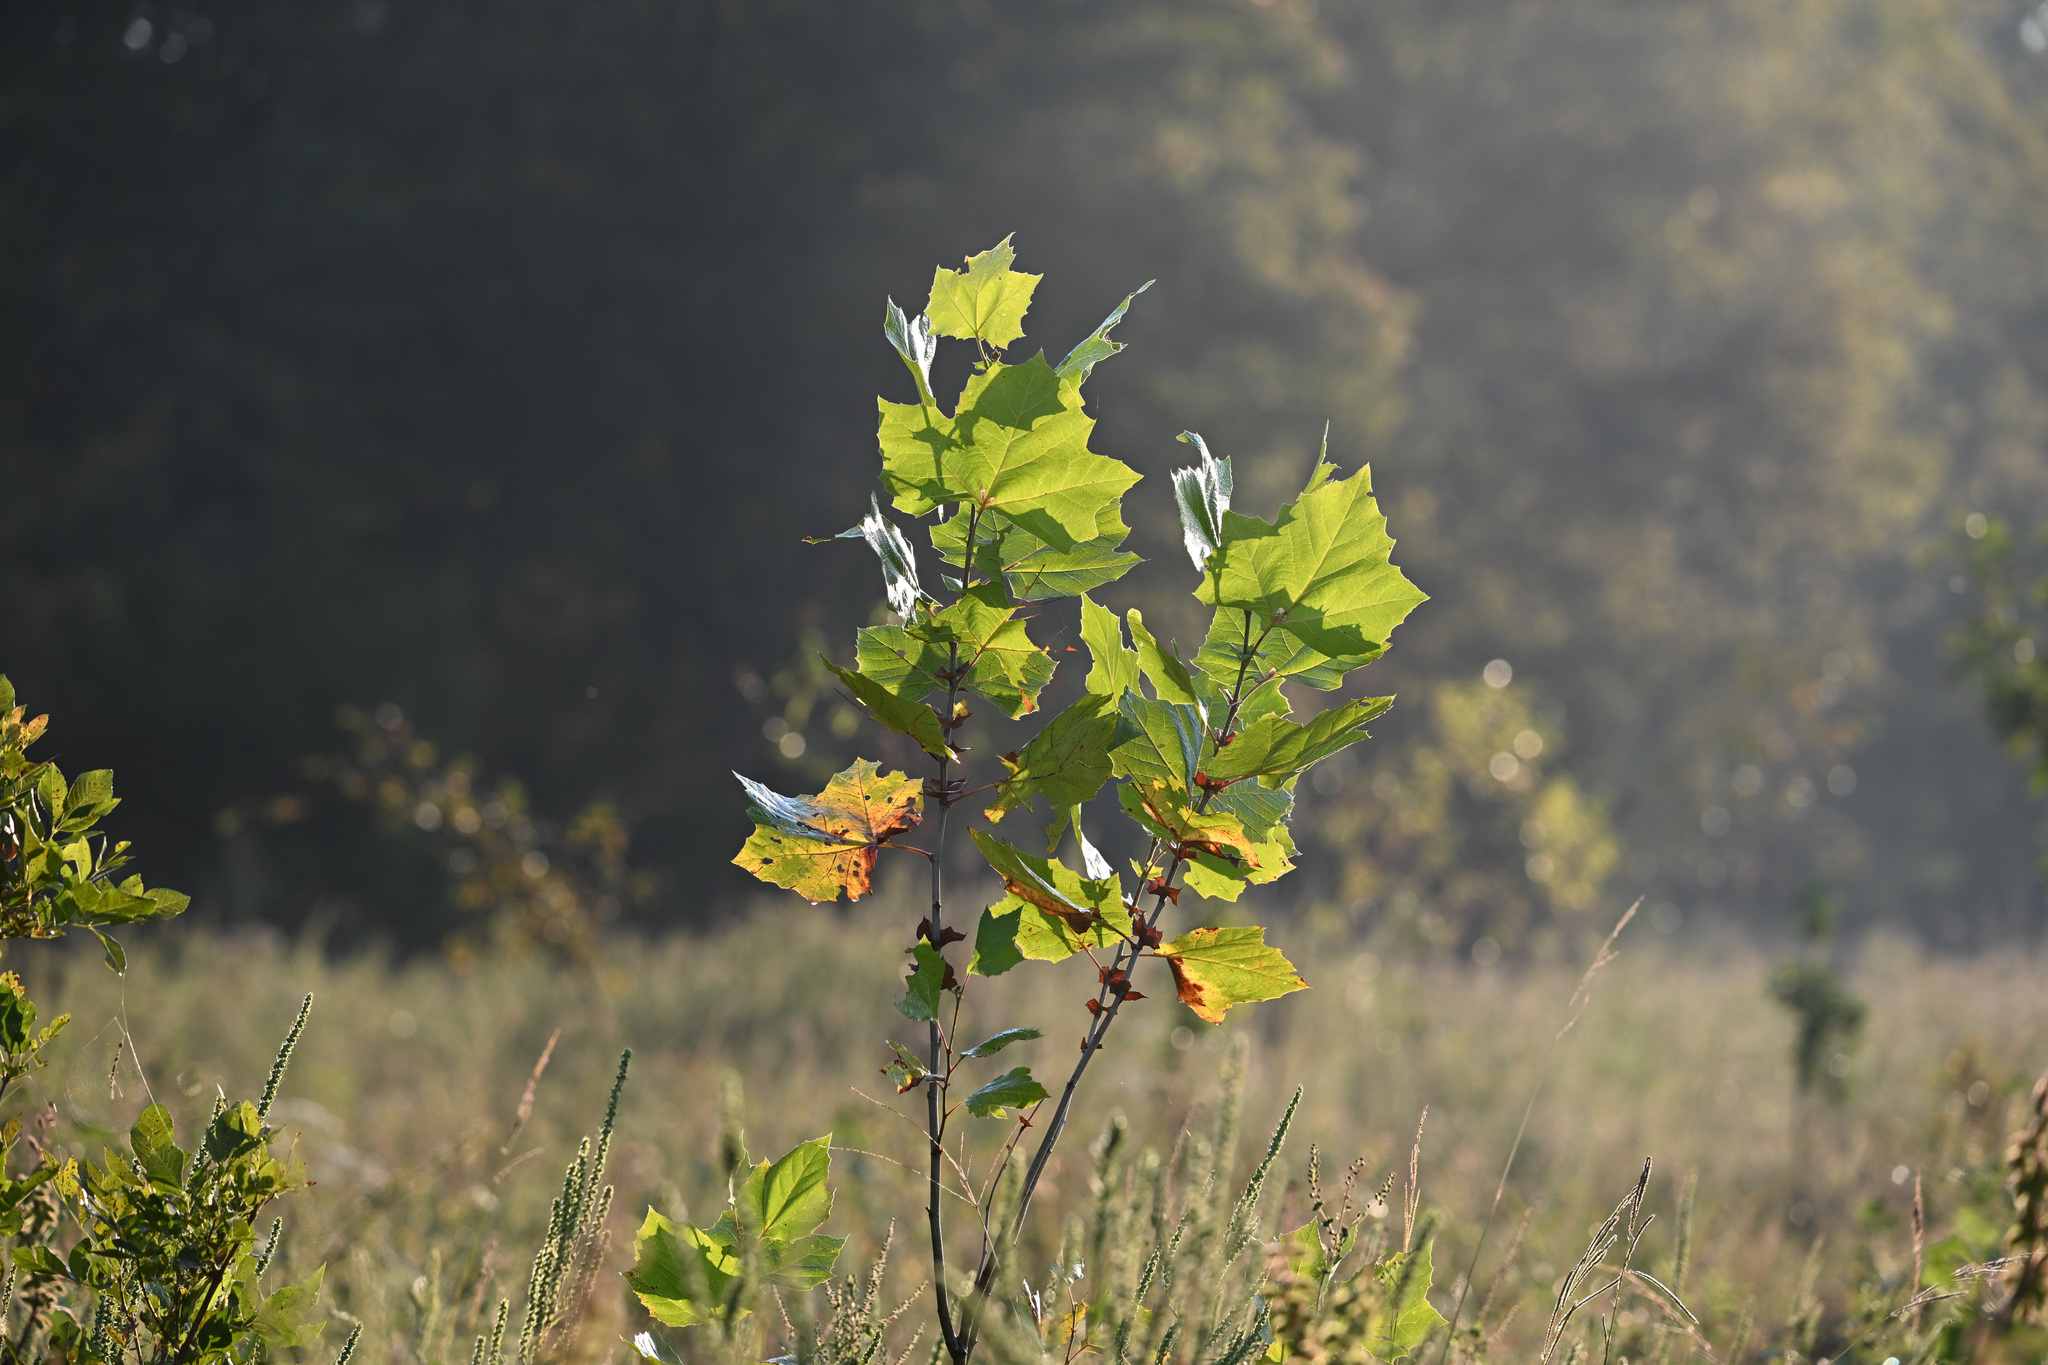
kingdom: Plantae
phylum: Tracheophyta
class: Magnoliopsida
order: Proteales
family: Platanaceae
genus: Platanus
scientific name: Platanus occidentalis
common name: American sycamore
